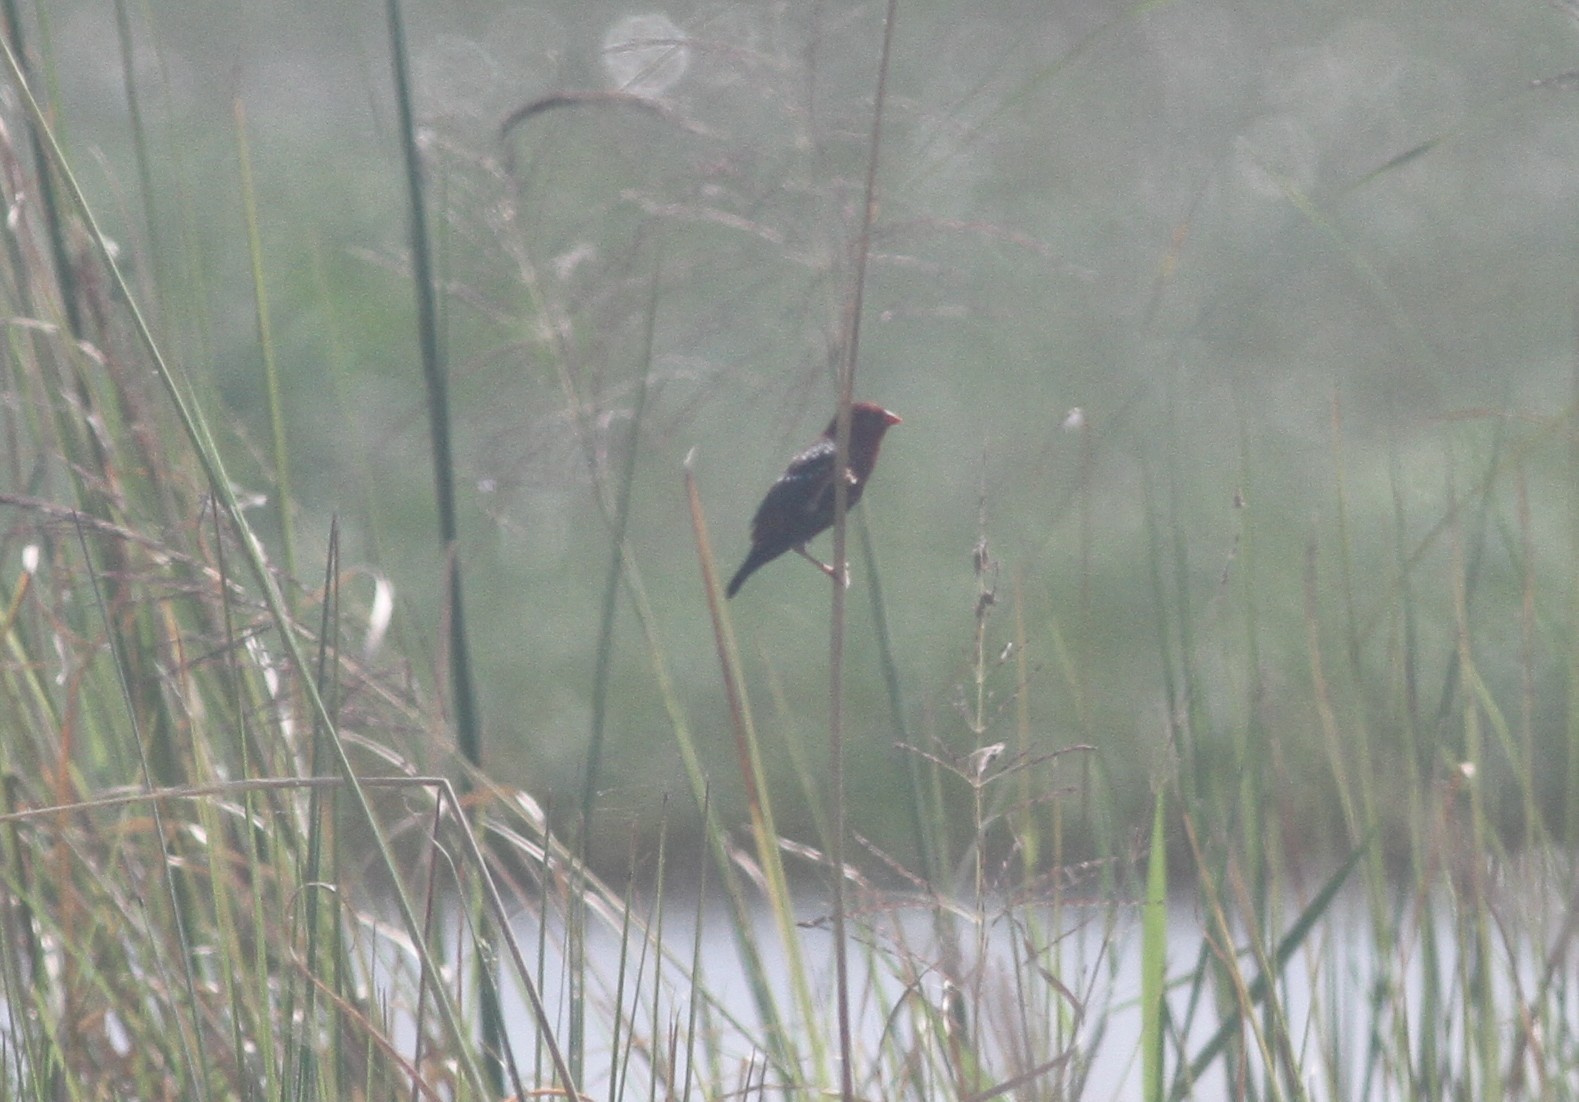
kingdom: Animalia
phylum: Chordata
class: Aves
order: Passeriformes
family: Estrildidae
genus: Amandava
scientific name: Amandava amandava
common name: Red avadavat
